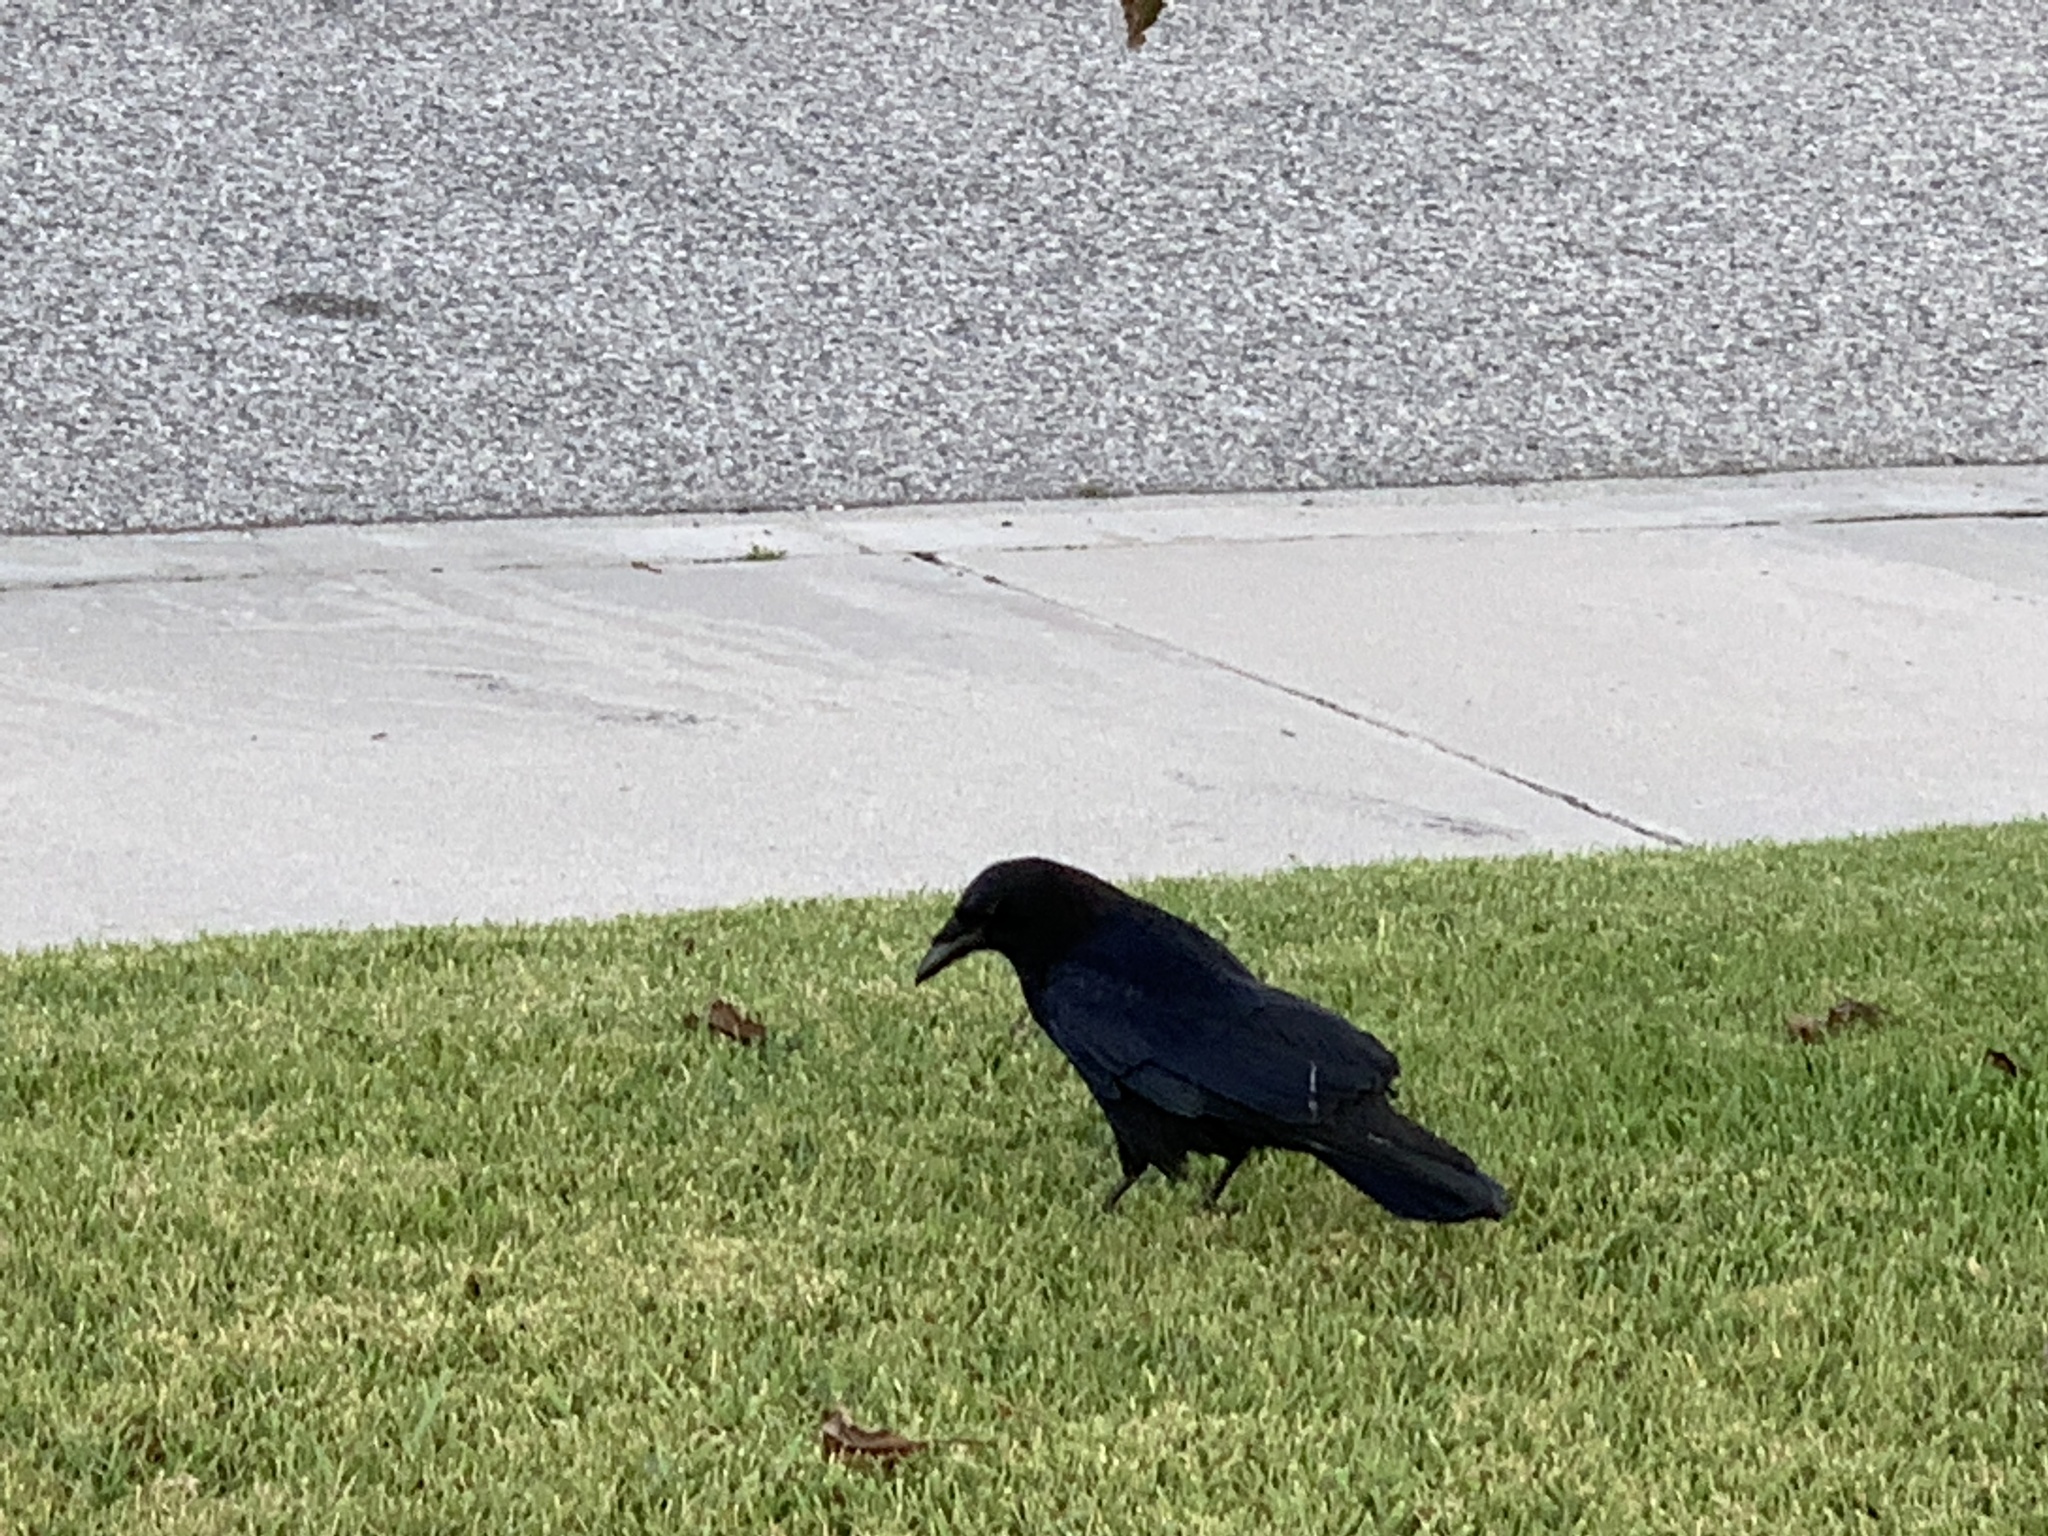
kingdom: Animalia
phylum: Chordata
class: Aves
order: Passeriformes
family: Corvidae
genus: Corvus
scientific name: Corvus corax
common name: Common raven
